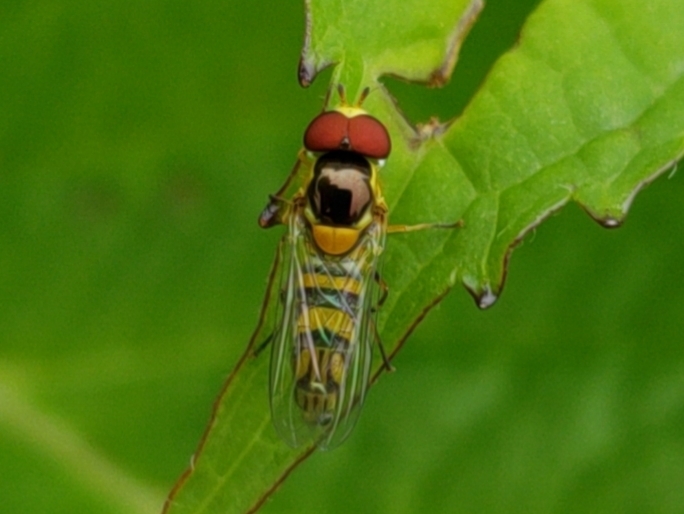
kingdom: Animalia
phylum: Arthropoda
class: Insecta
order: Diptera
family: Syrphidae
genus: Allograpta
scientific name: Allograpta obliqua
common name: Common oblique syrphid
